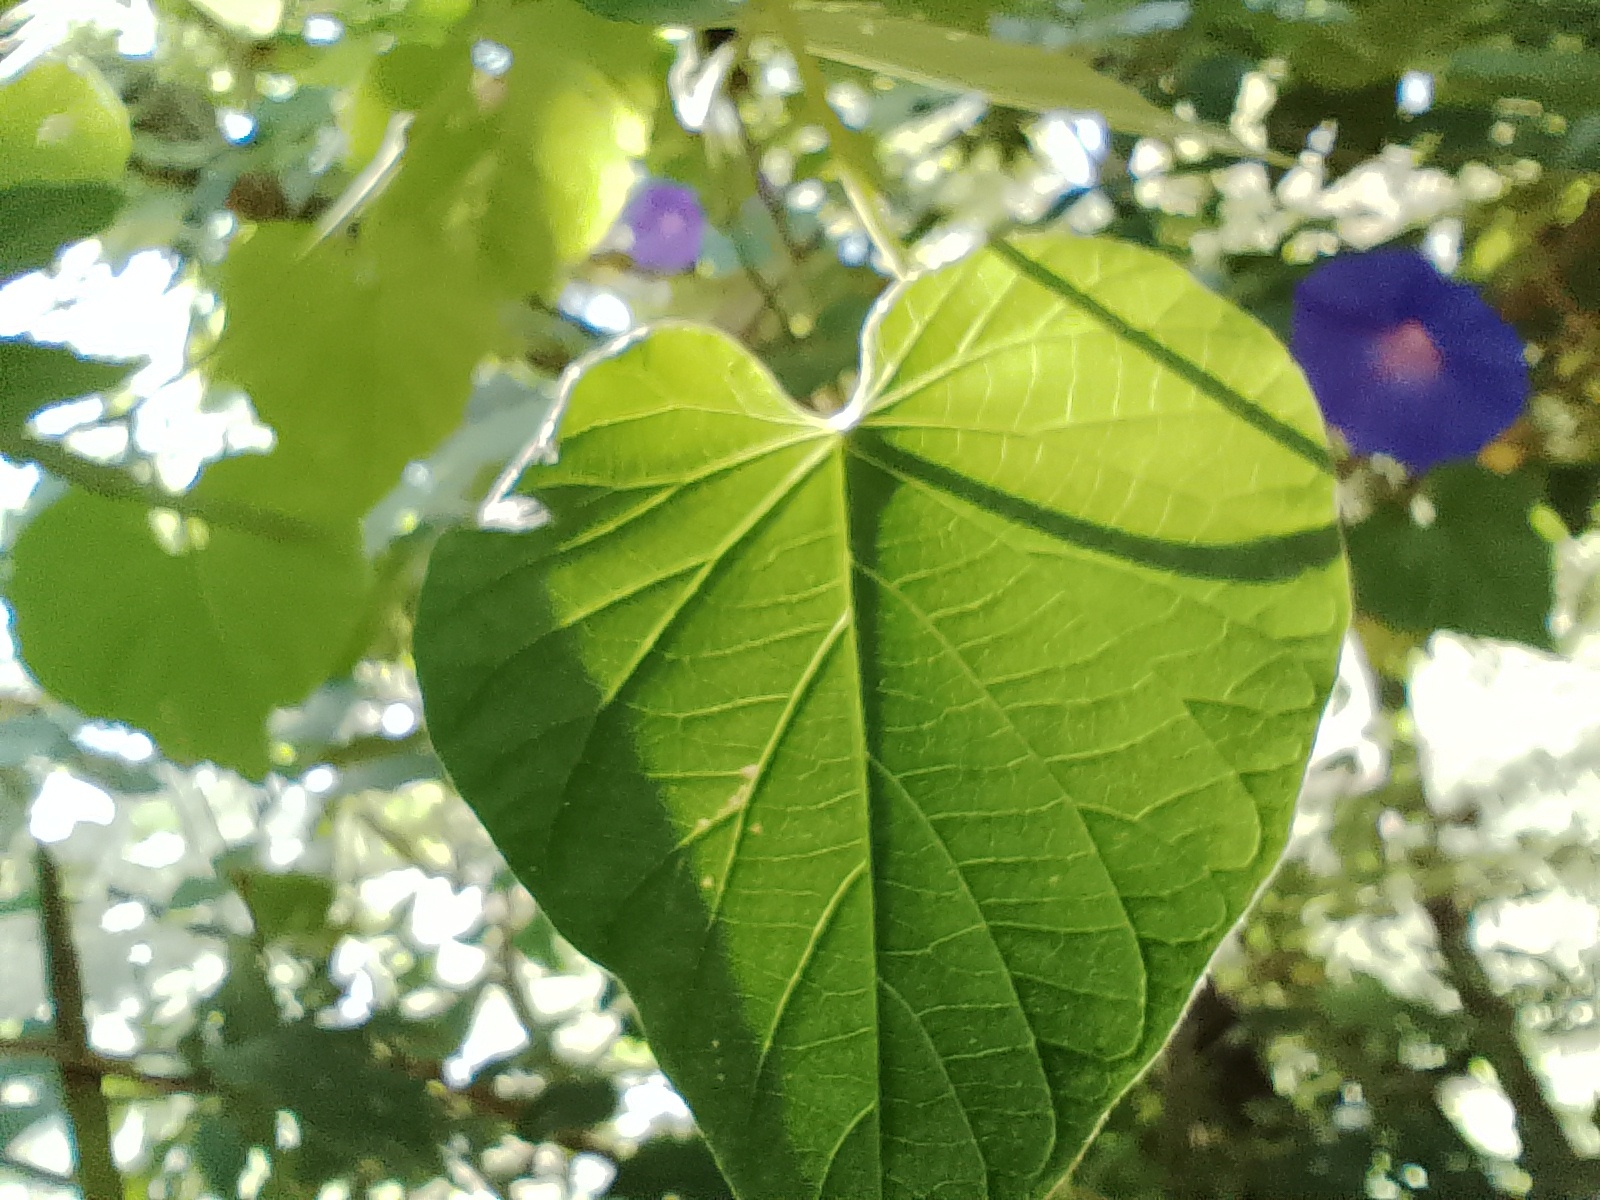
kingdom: Plantae
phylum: Tracheophyta
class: Magnoliopsida
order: Solanales
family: Convolvulaceae
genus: Ipomoea
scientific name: Ipomoea indica
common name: Blue dawnflower
